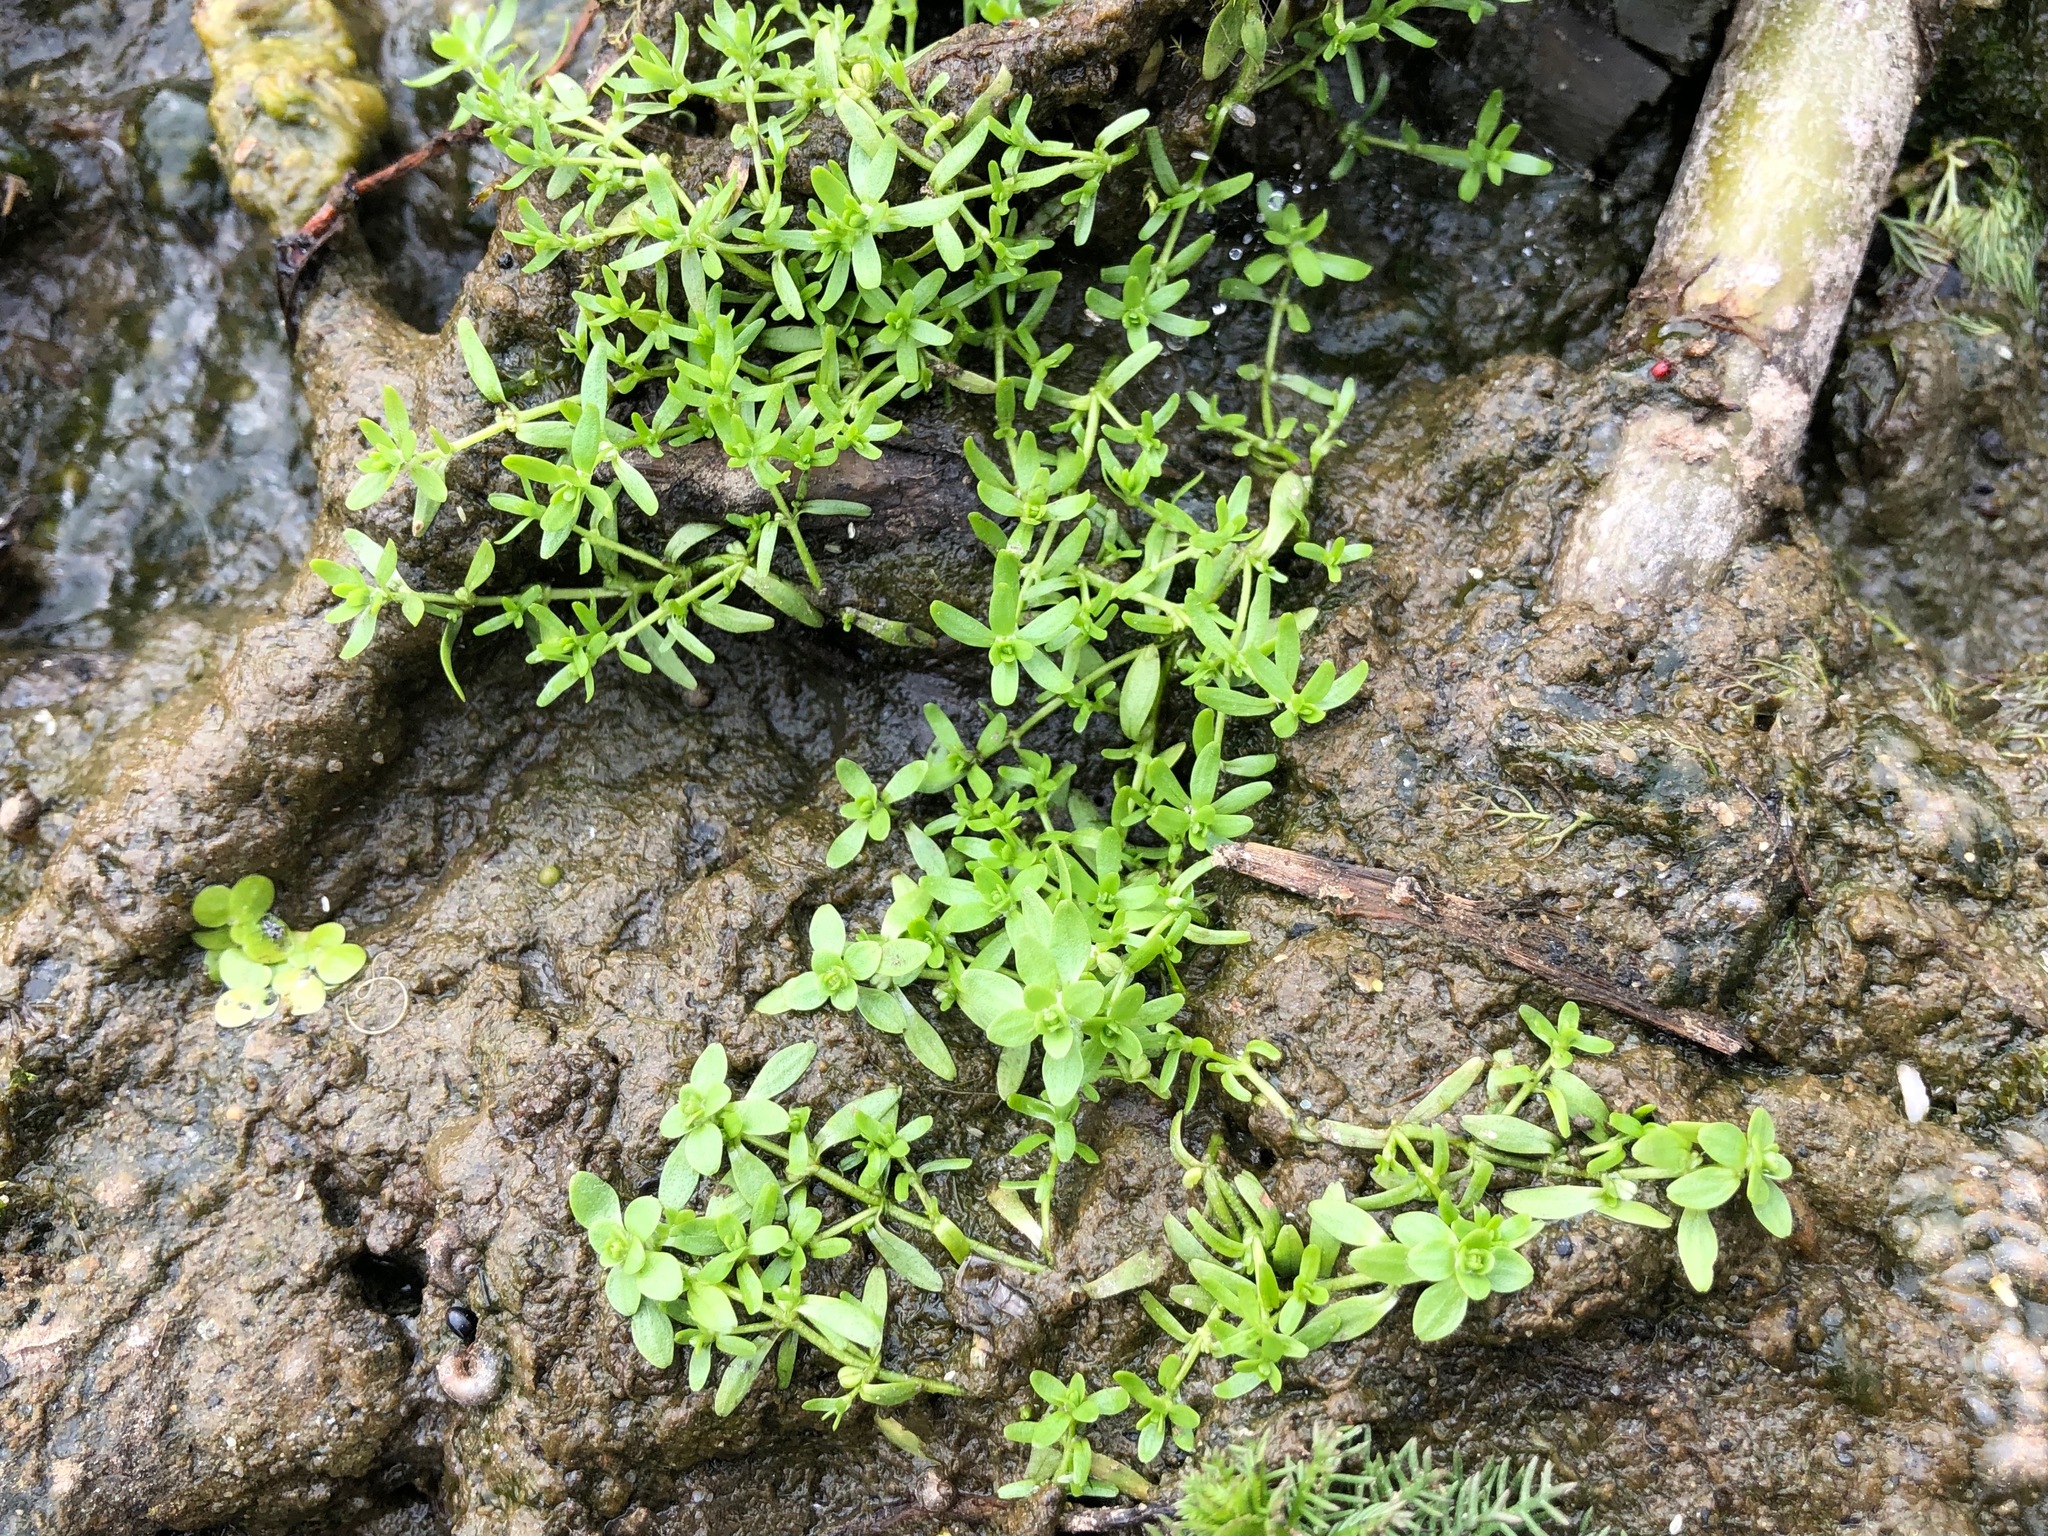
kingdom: Plantae
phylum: Tracheophyta
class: Magnoliopsida
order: Lamiales
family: Plantaginaceae
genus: Callitriche
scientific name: Callitriche palustris
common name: Spring water-starwort
